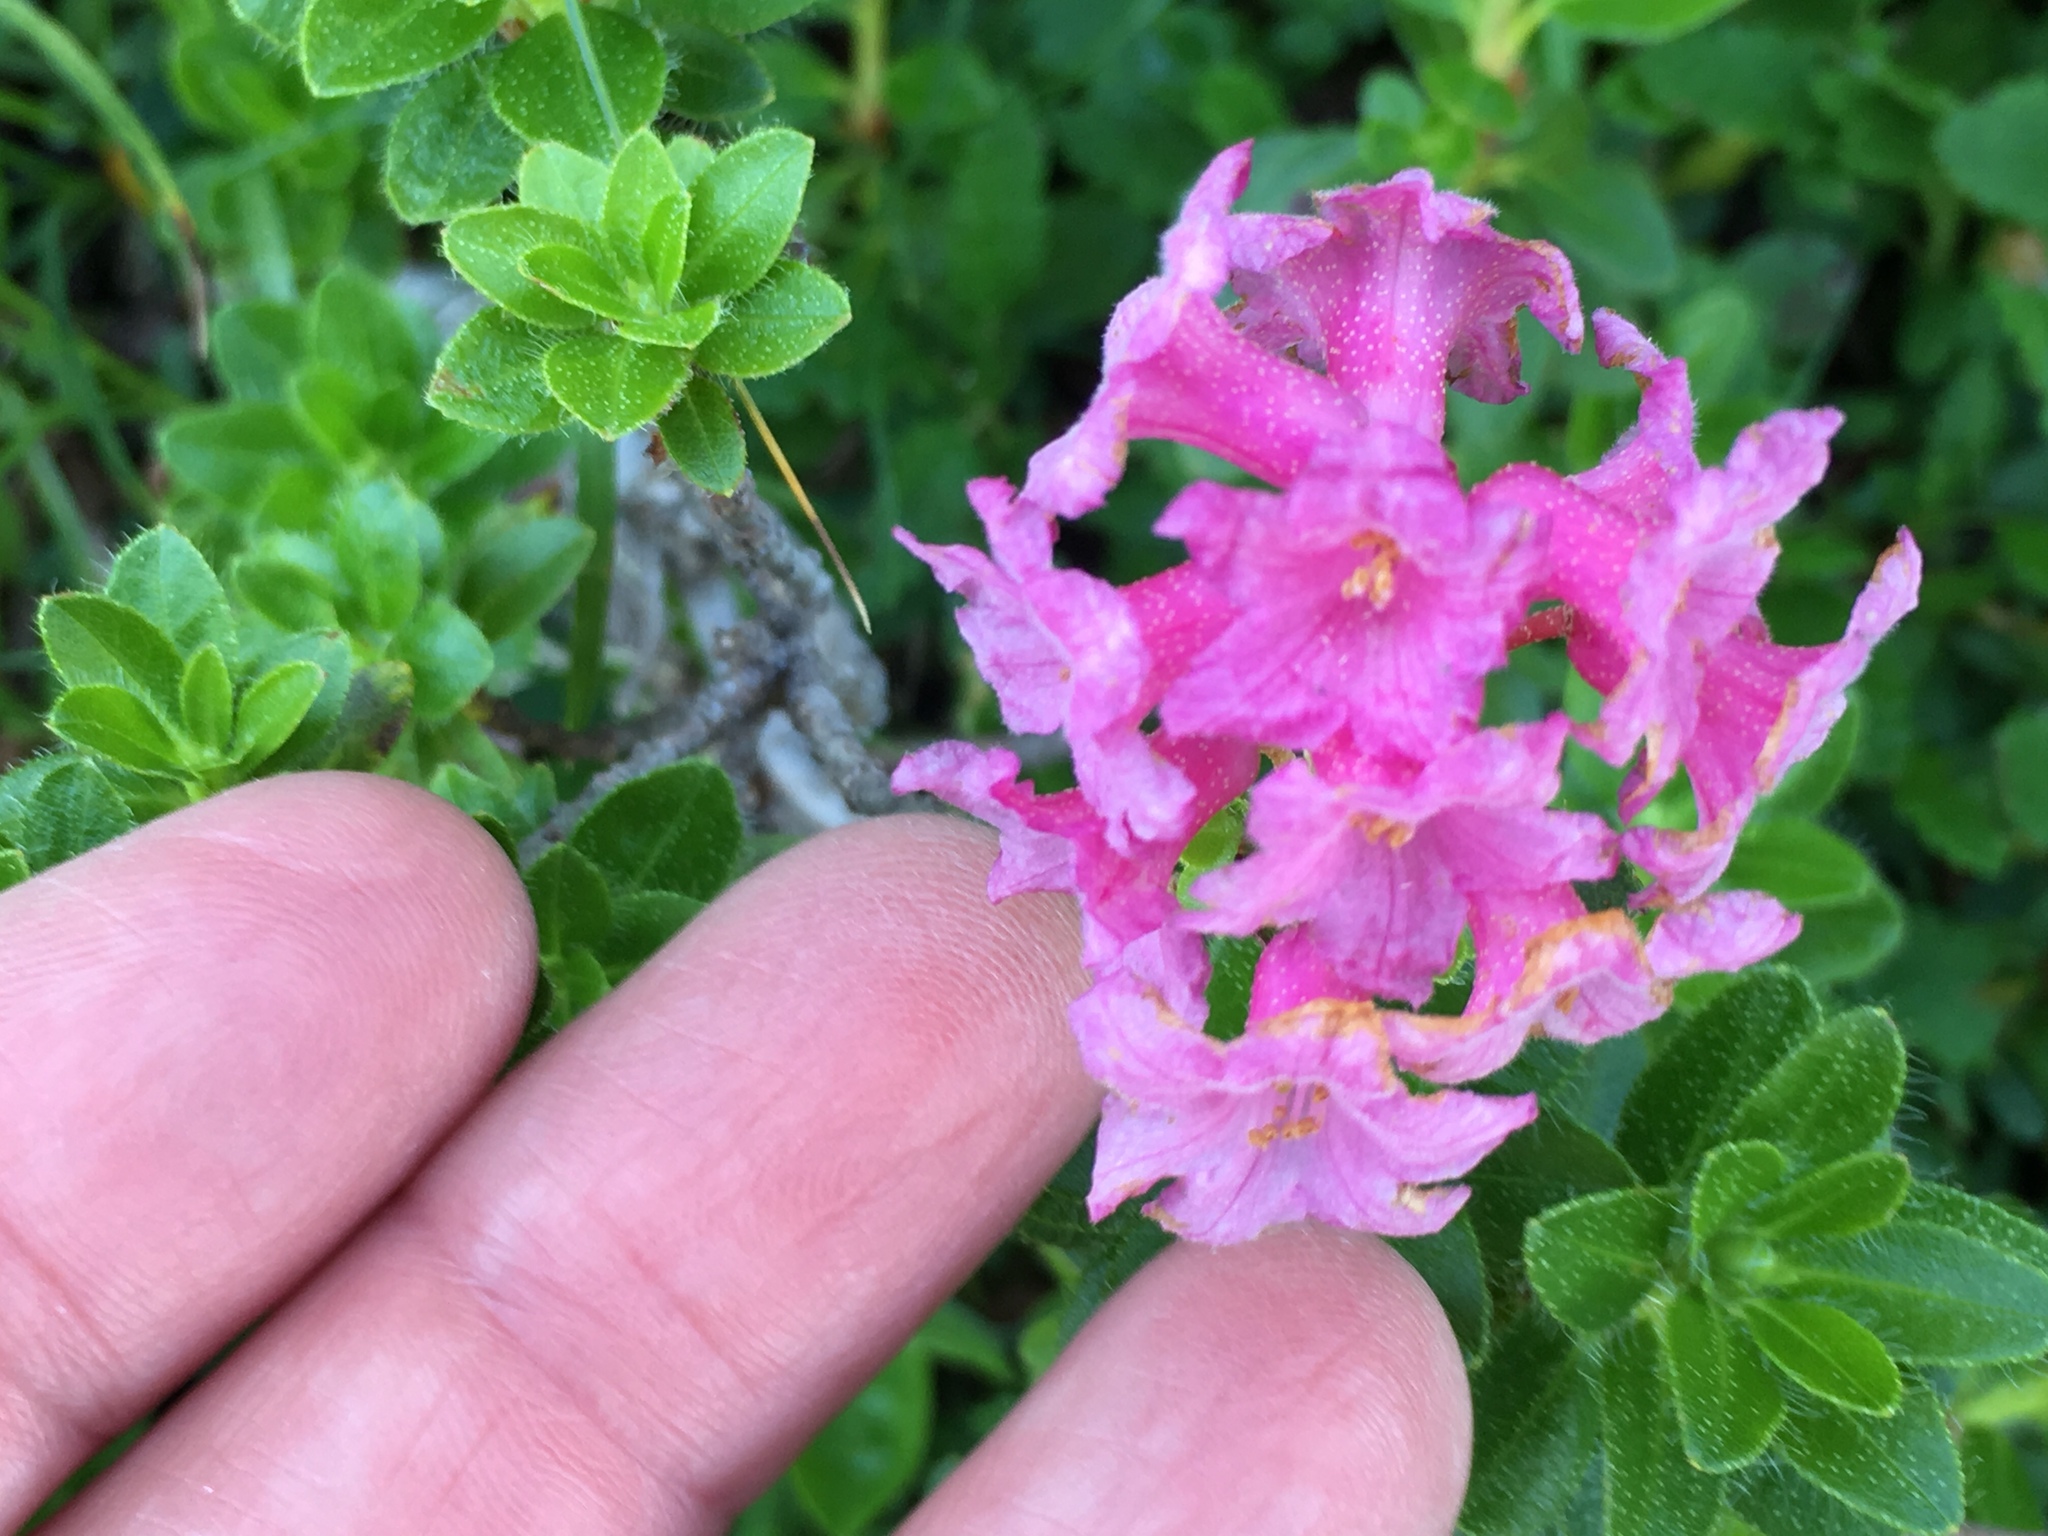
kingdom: Plantae
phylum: Tracheophyta
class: Magnoliopsida
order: Ericales
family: Ericaceae
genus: Rhododendron
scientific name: Rhododendron hirsutum
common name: Hairy alpenrose
